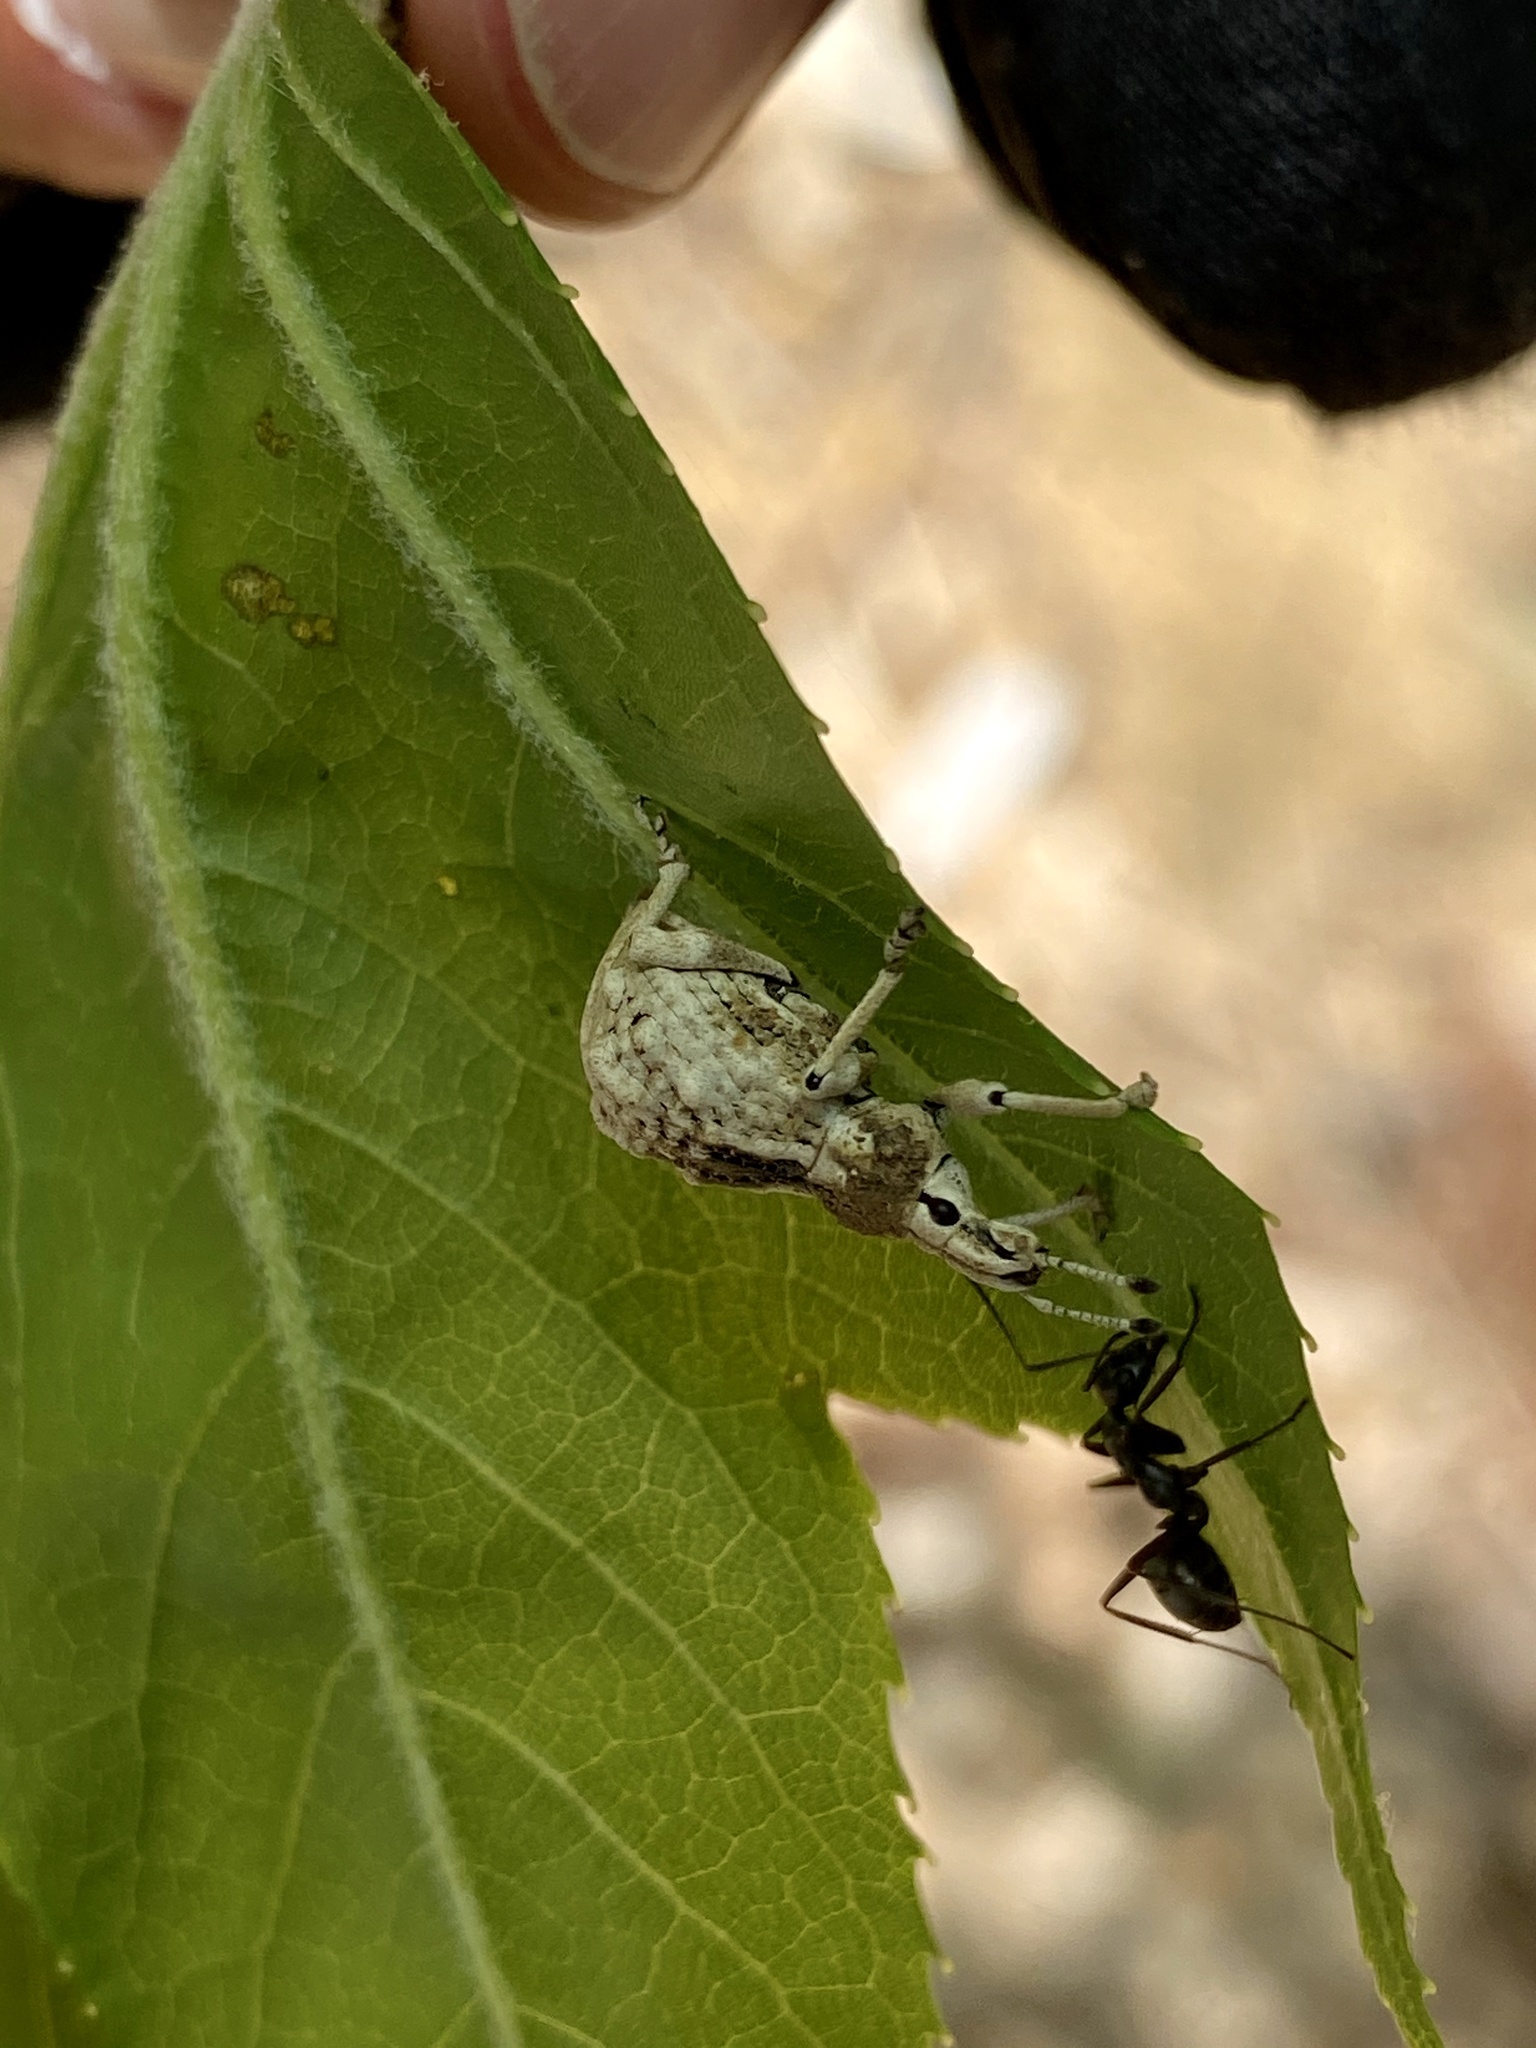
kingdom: Animalia
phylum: Arthropoda
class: Insecta
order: Coleoptera
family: Curculionidae
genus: Dermatoxenus
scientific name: Dermatoxenus caesicollis
